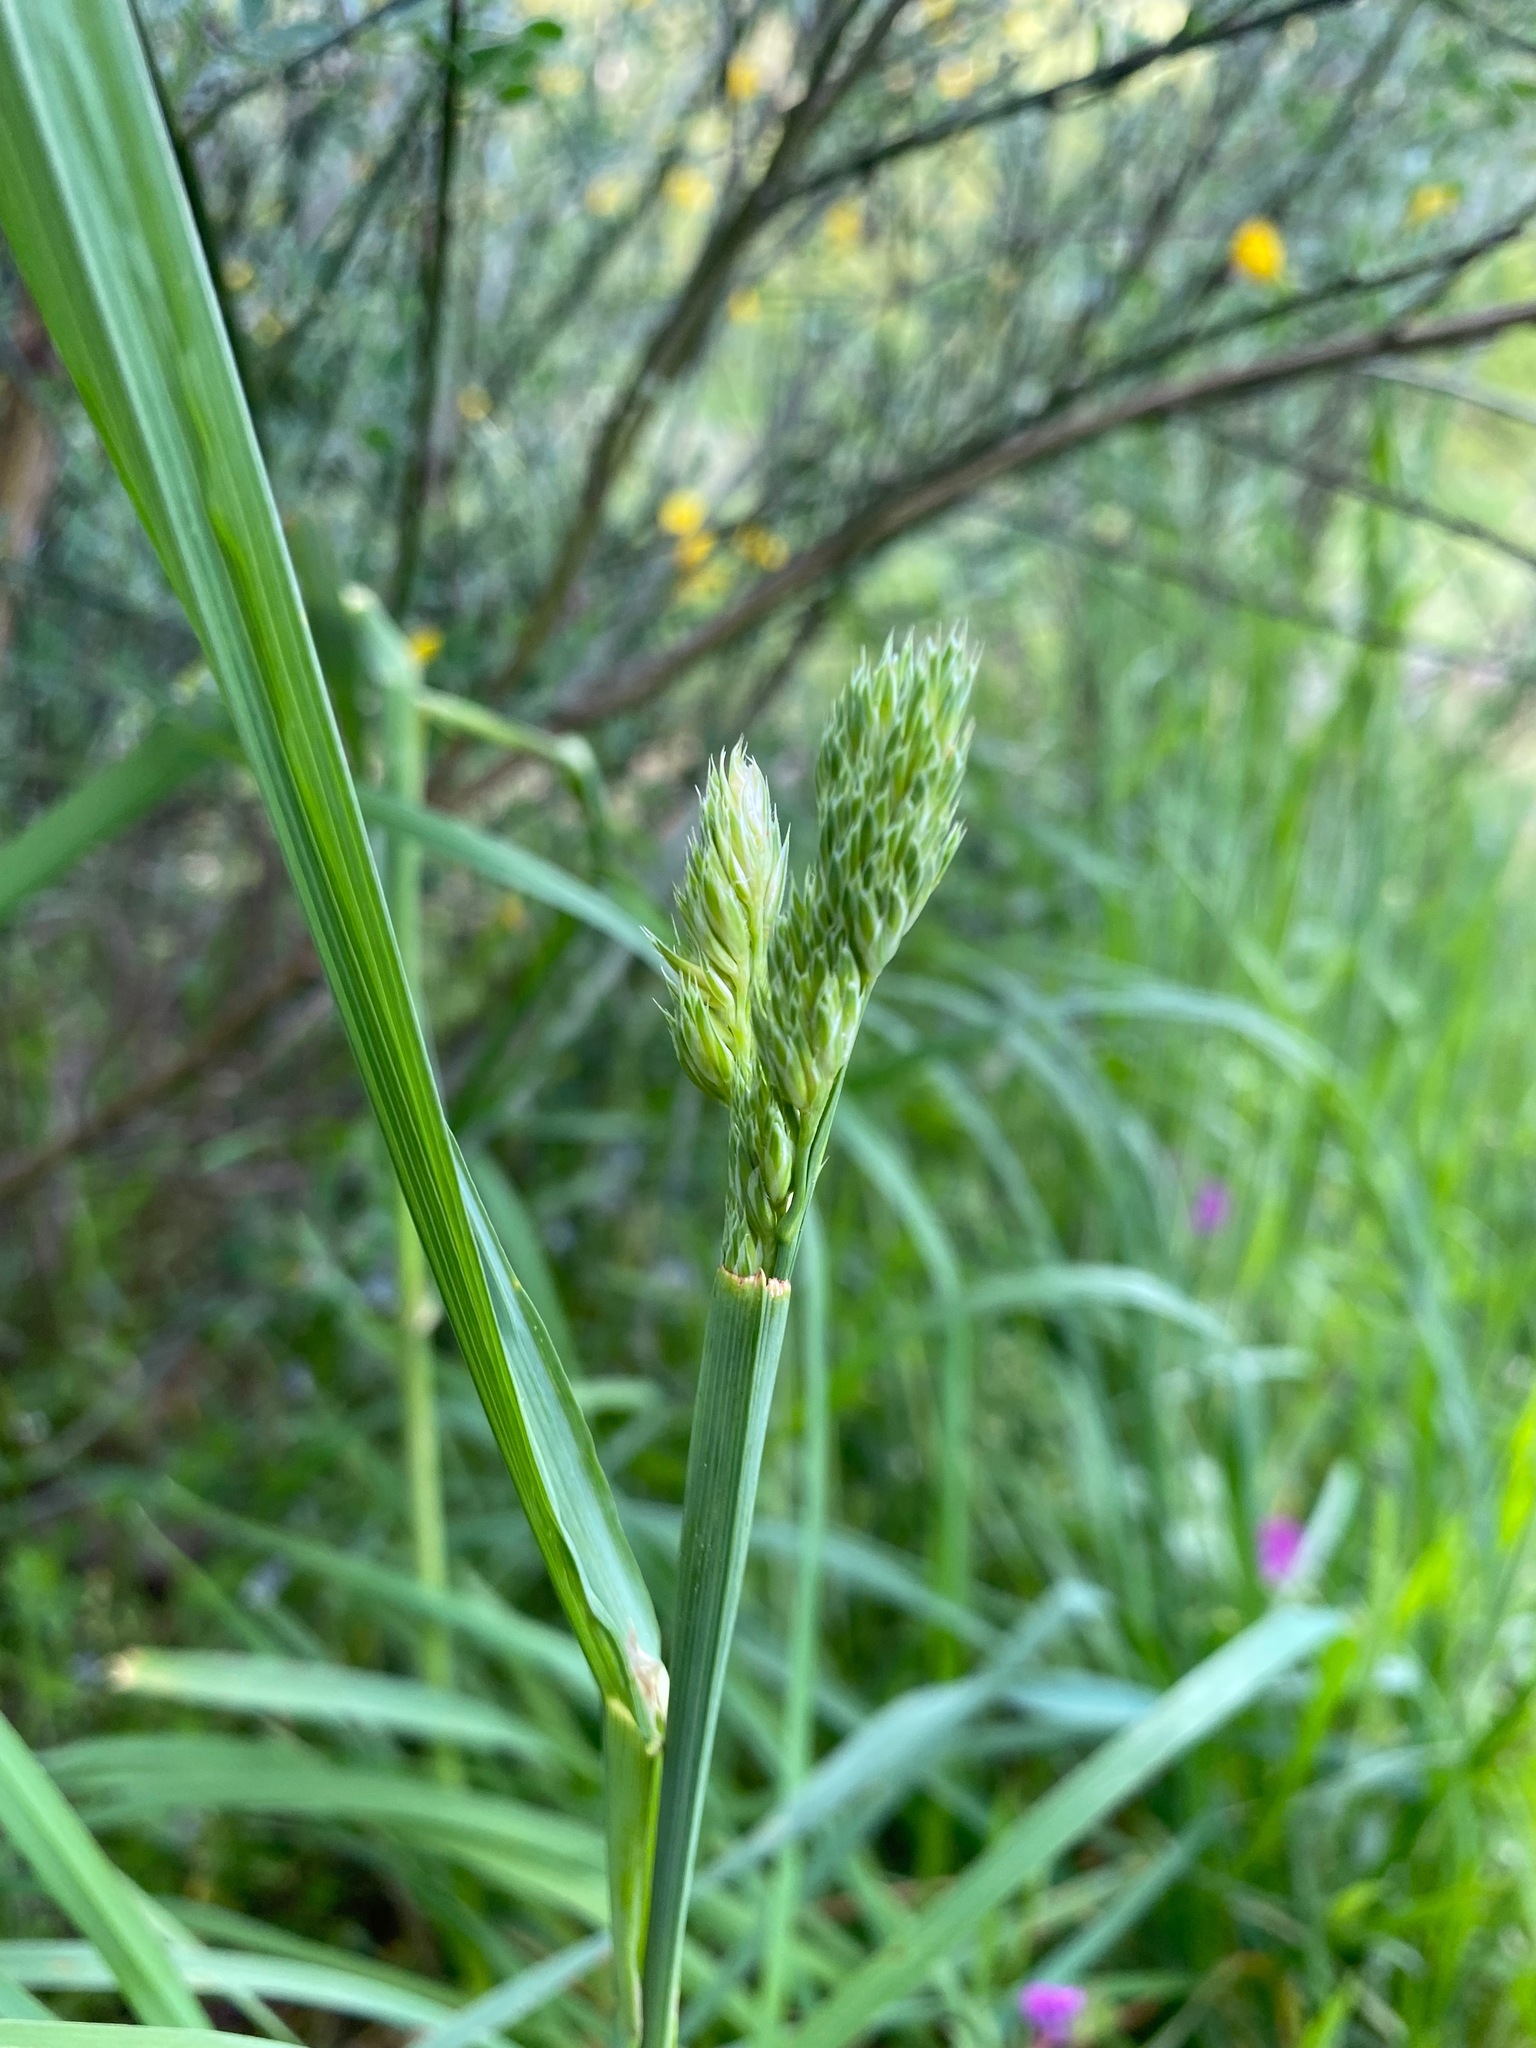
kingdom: Plantae
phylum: Tracheophyta
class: Liliopsida
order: Poales
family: Poaceae
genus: Dactylis
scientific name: Dactylis glomerata
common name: Orchardgrass
